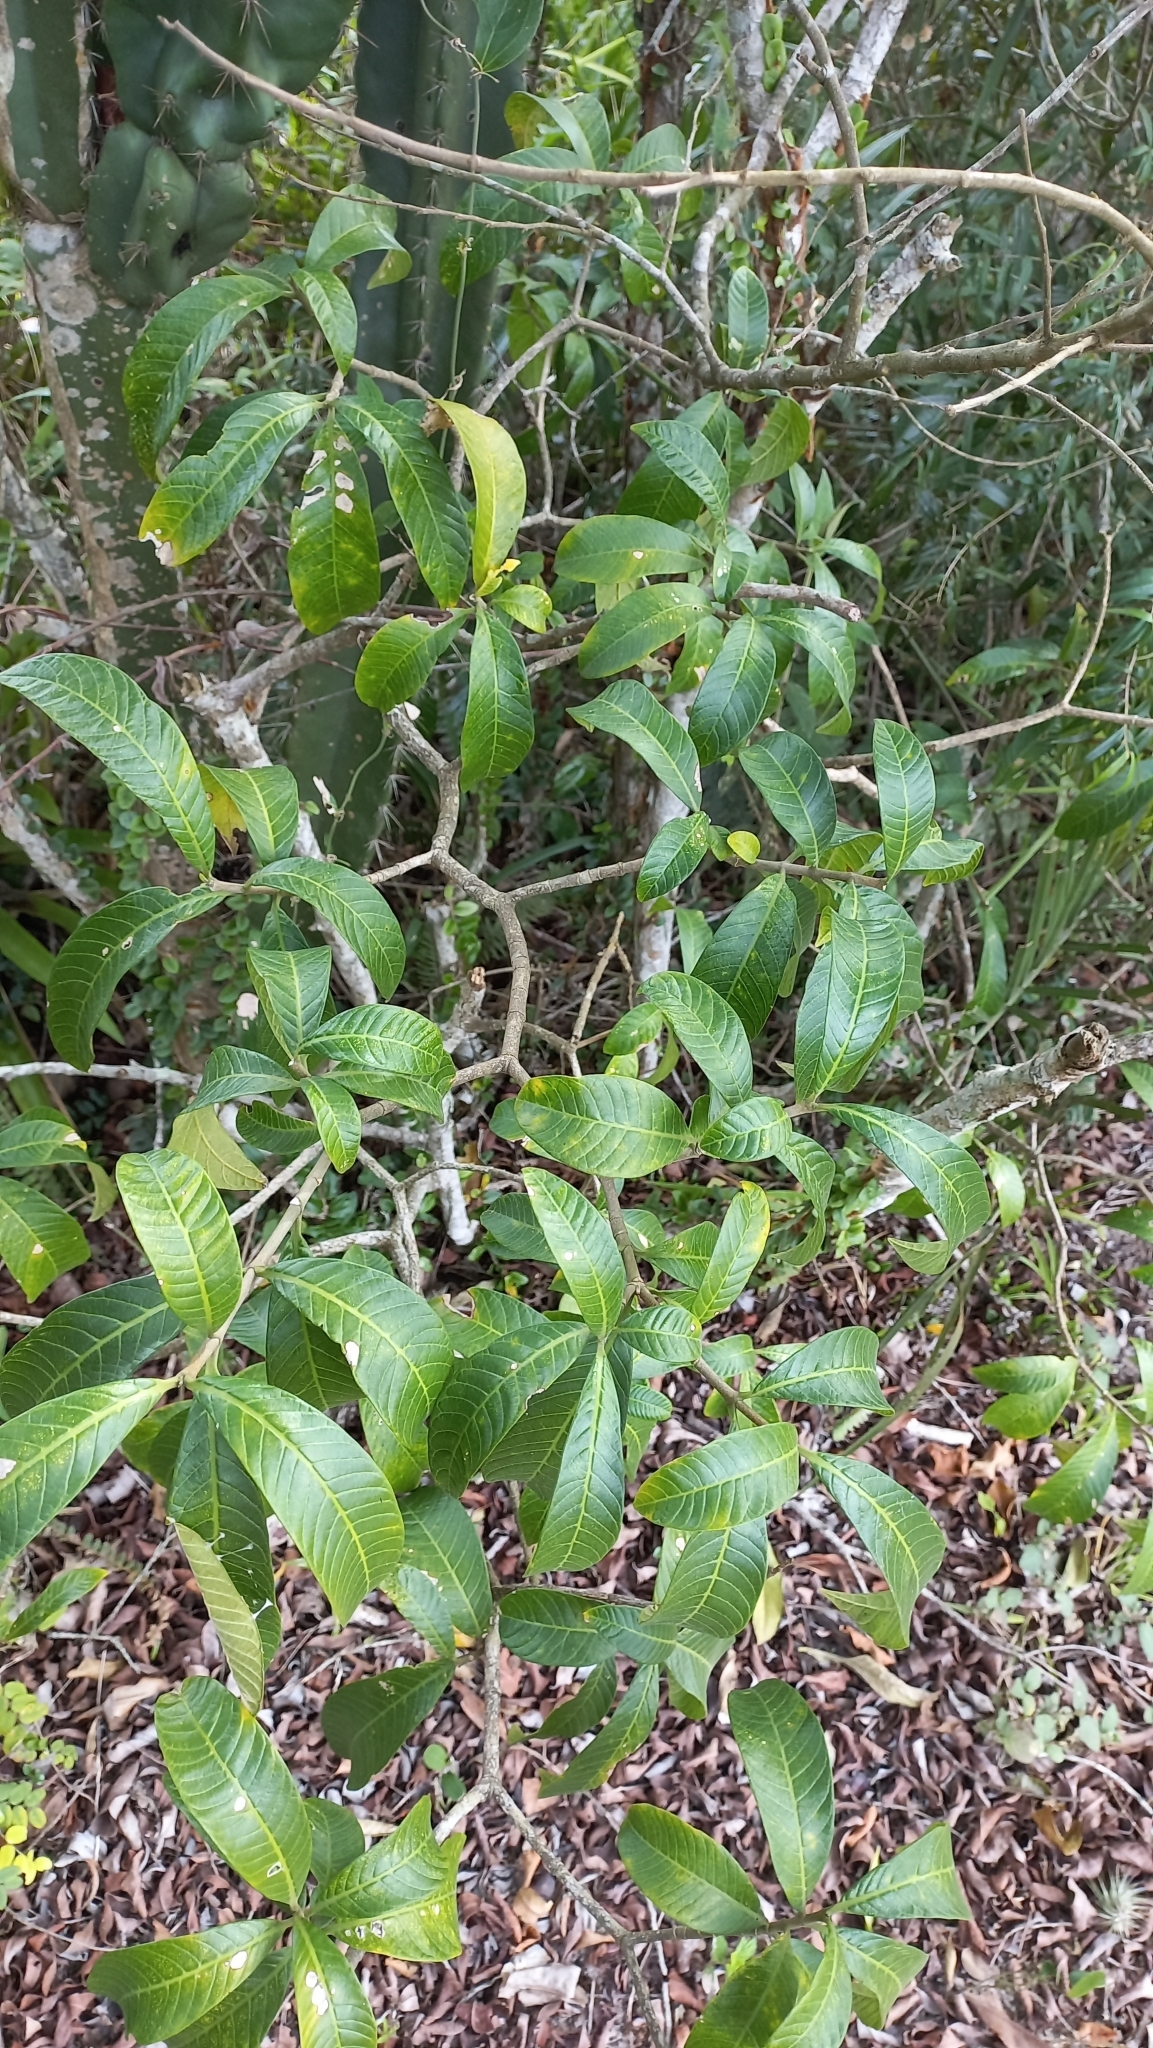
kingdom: Plantae
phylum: Tracheophyta
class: Magnoliopsida
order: Gentianales
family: Apocynaceae
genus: Tabernaemontana
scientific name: Tabernaemontana catharinensis
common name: Pinwheel-flower
